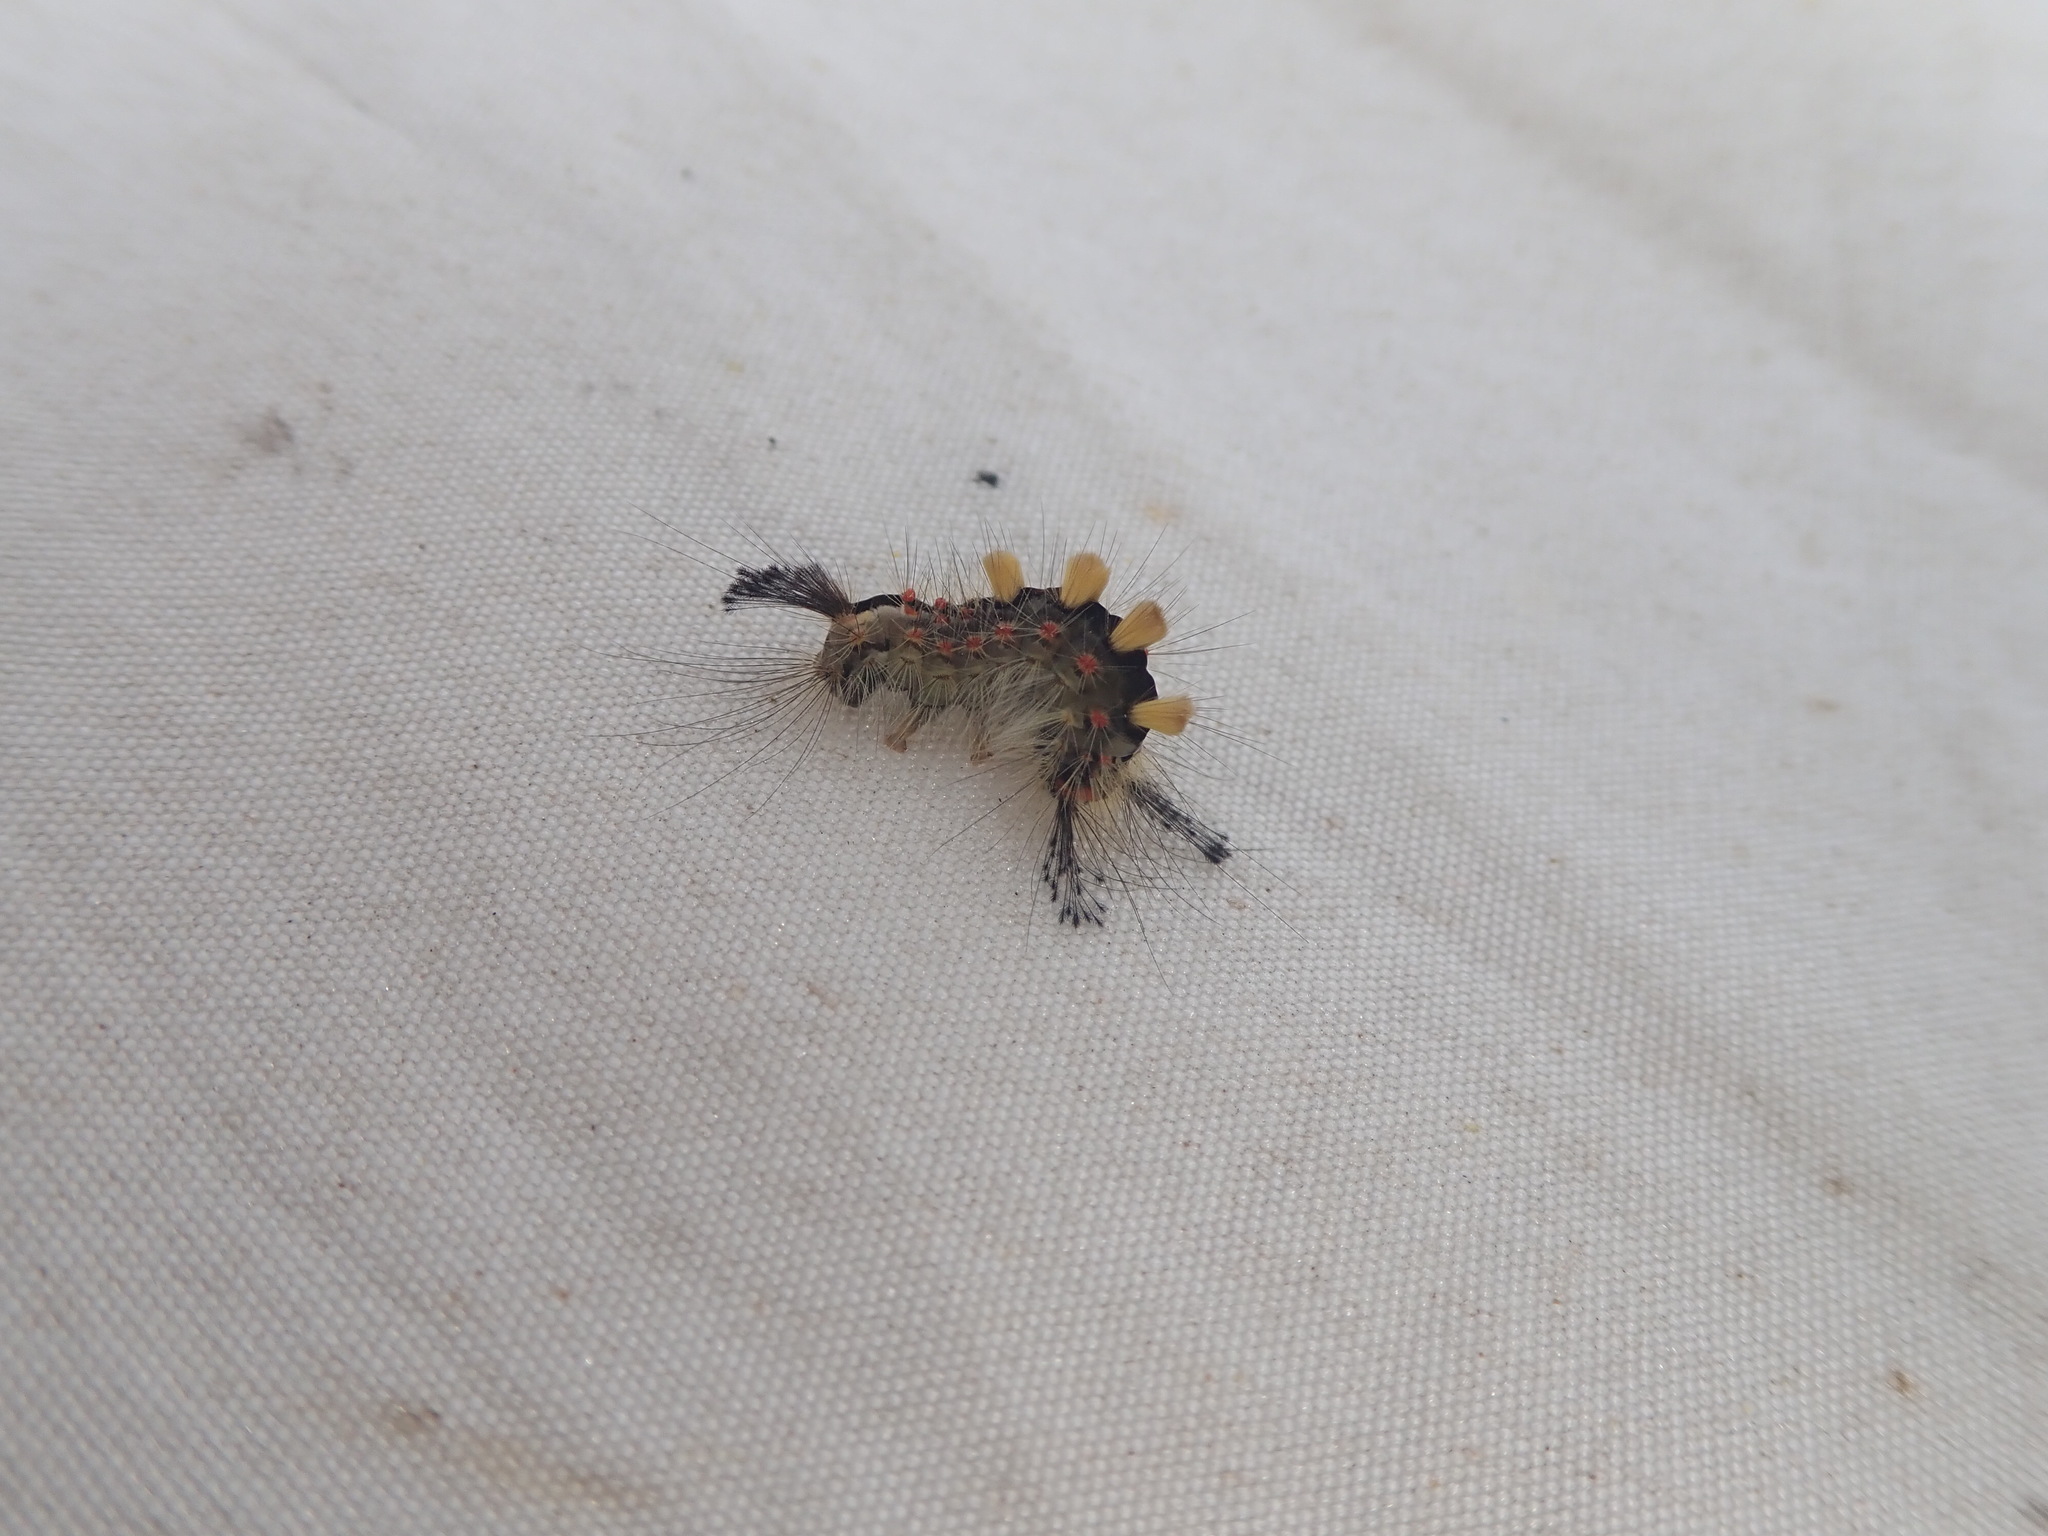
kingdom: Animalia
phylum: Arthropoda
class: Insecta
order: Lepidoptera
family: Erebidae
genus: Orgyia
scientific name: Orgyia antiqua
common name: Vapourer
